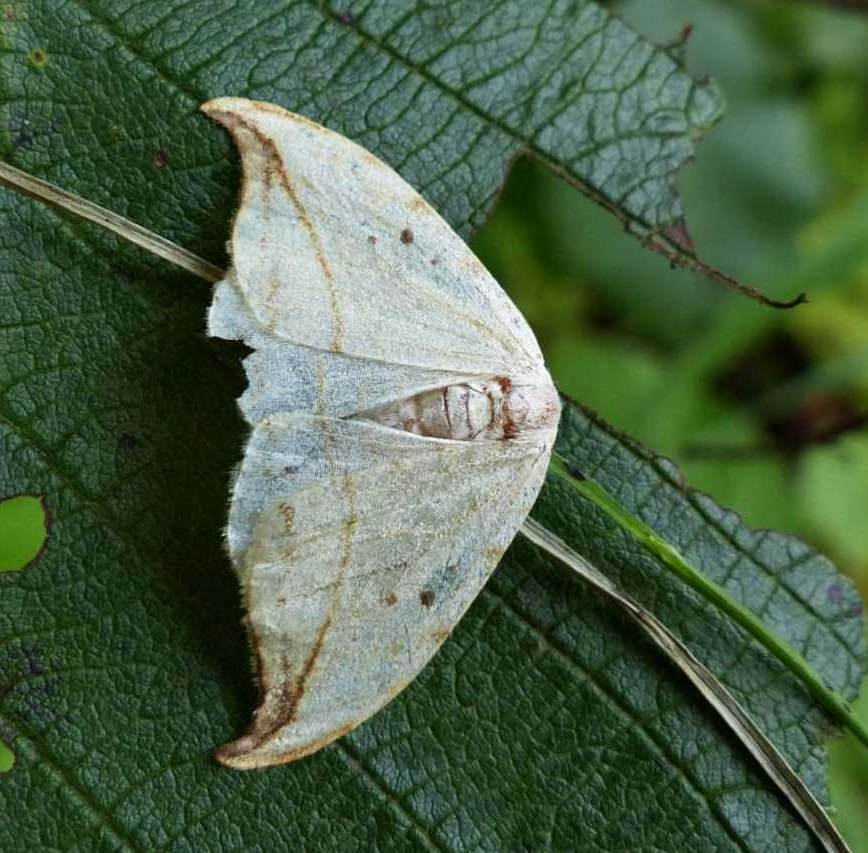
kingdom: Animalia
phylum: Arthropoda
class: Insecta
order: Lepidoptera
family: Drepanidae
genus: Drepana
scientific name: Drepana arcuata
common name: Arched hooktip moth
